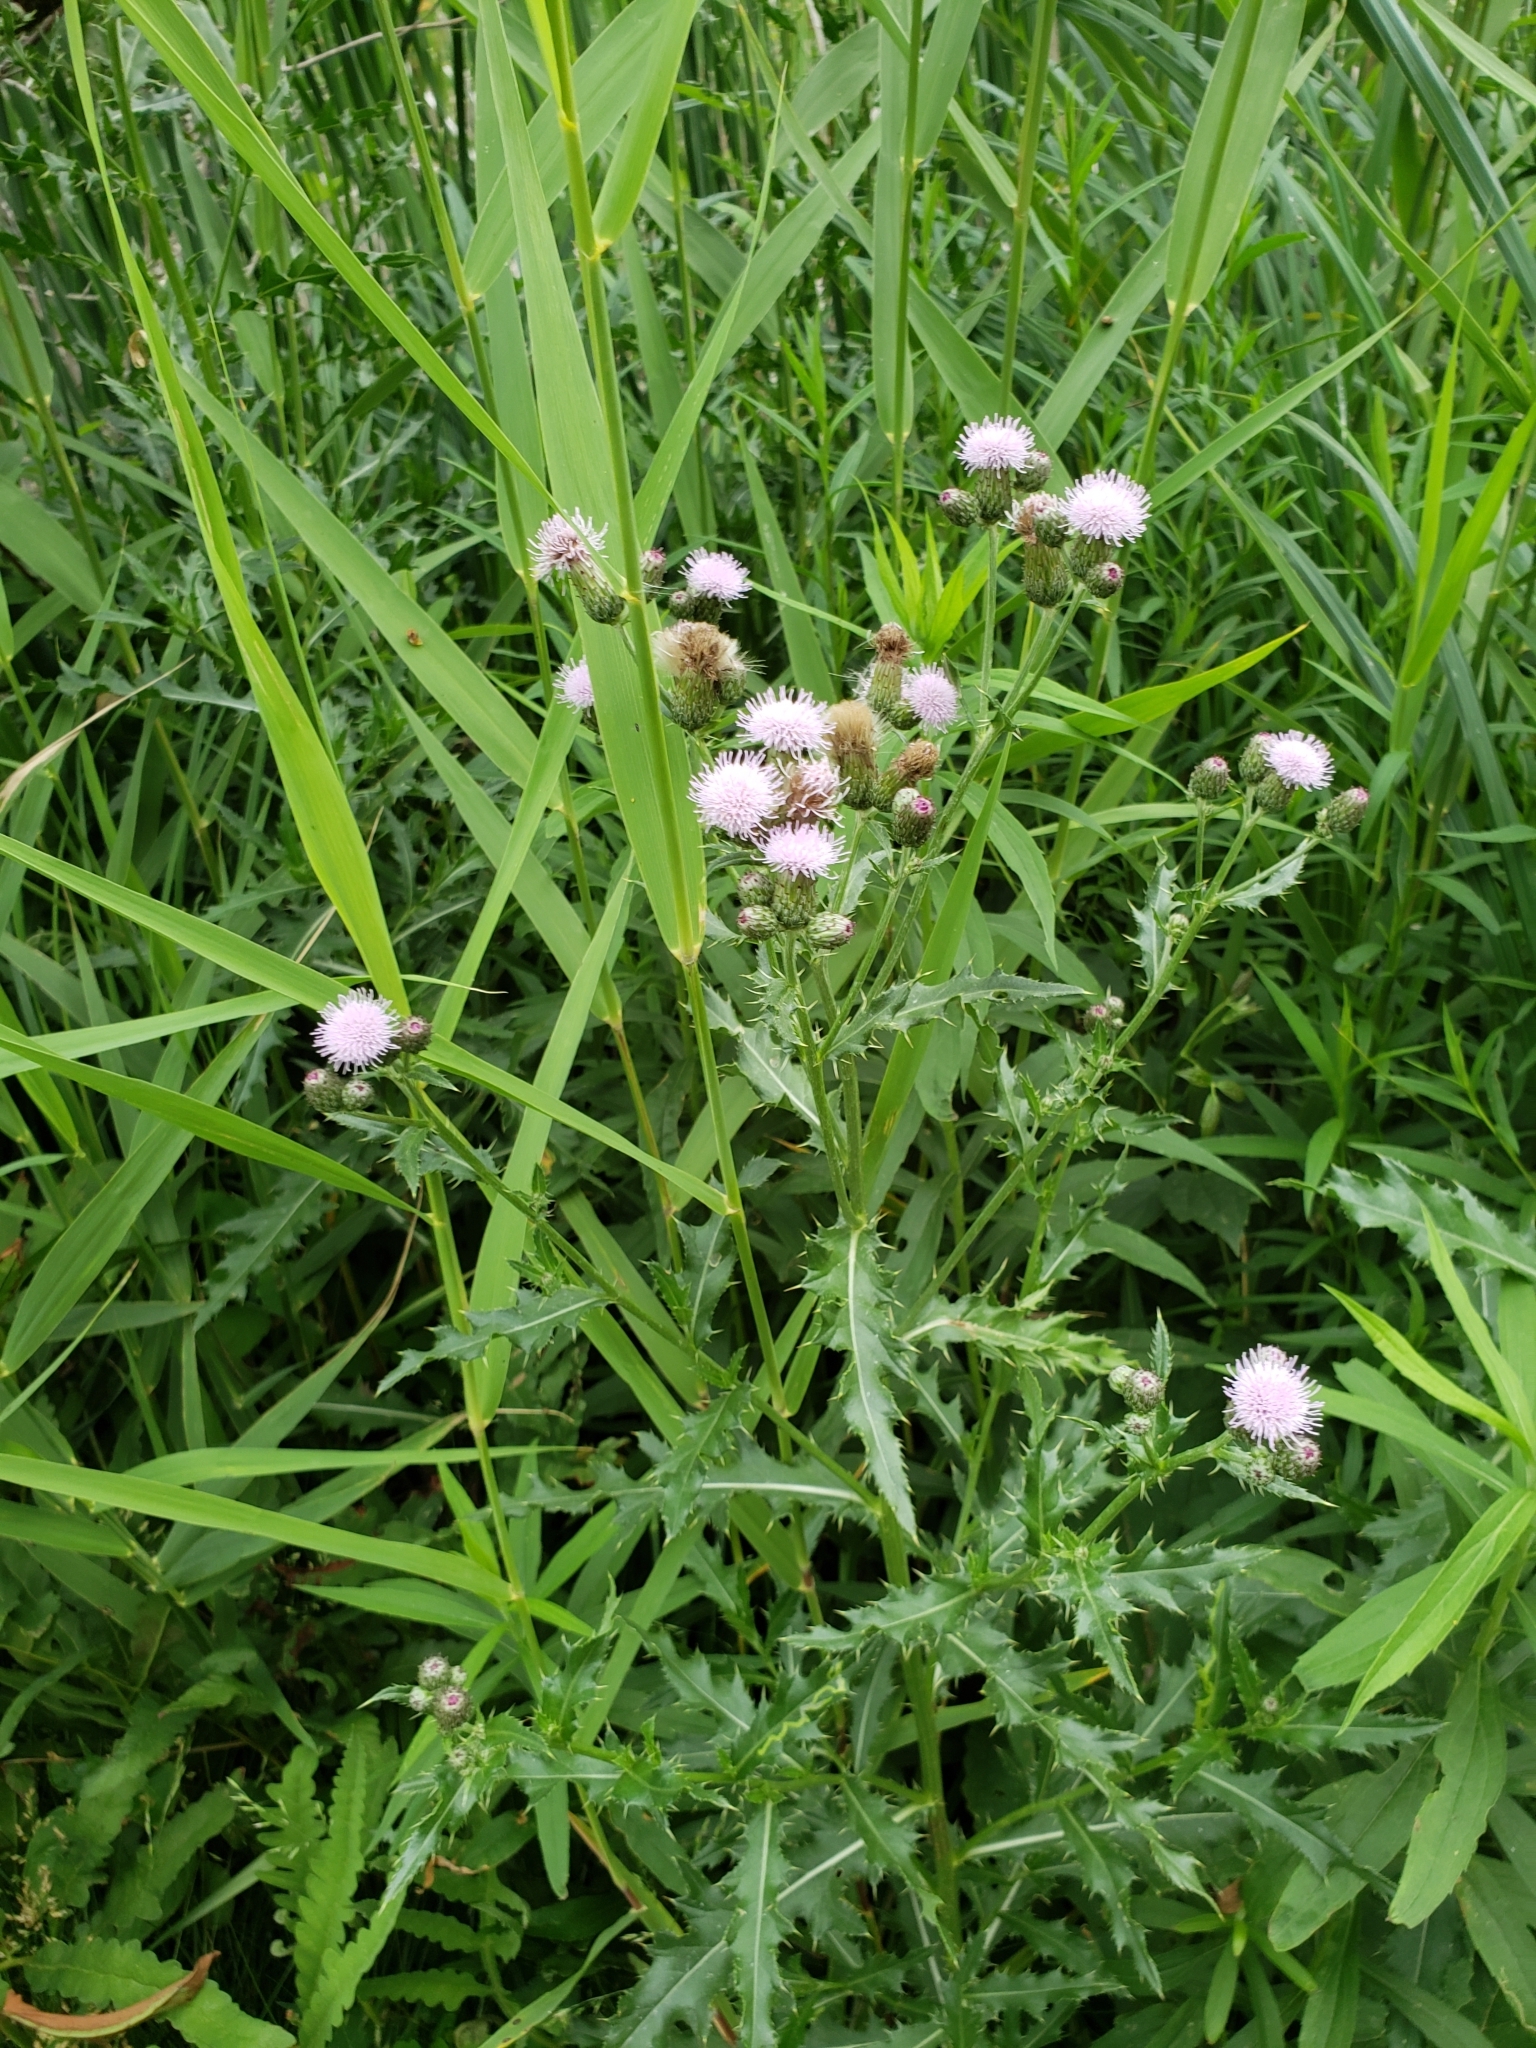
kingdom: Plantae
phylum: Tracheophyta
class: Magnoliopsida
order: Asterales
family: Asteraceae
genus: Cirsium
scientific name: Cirsium arvense
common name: Creeping thistle
